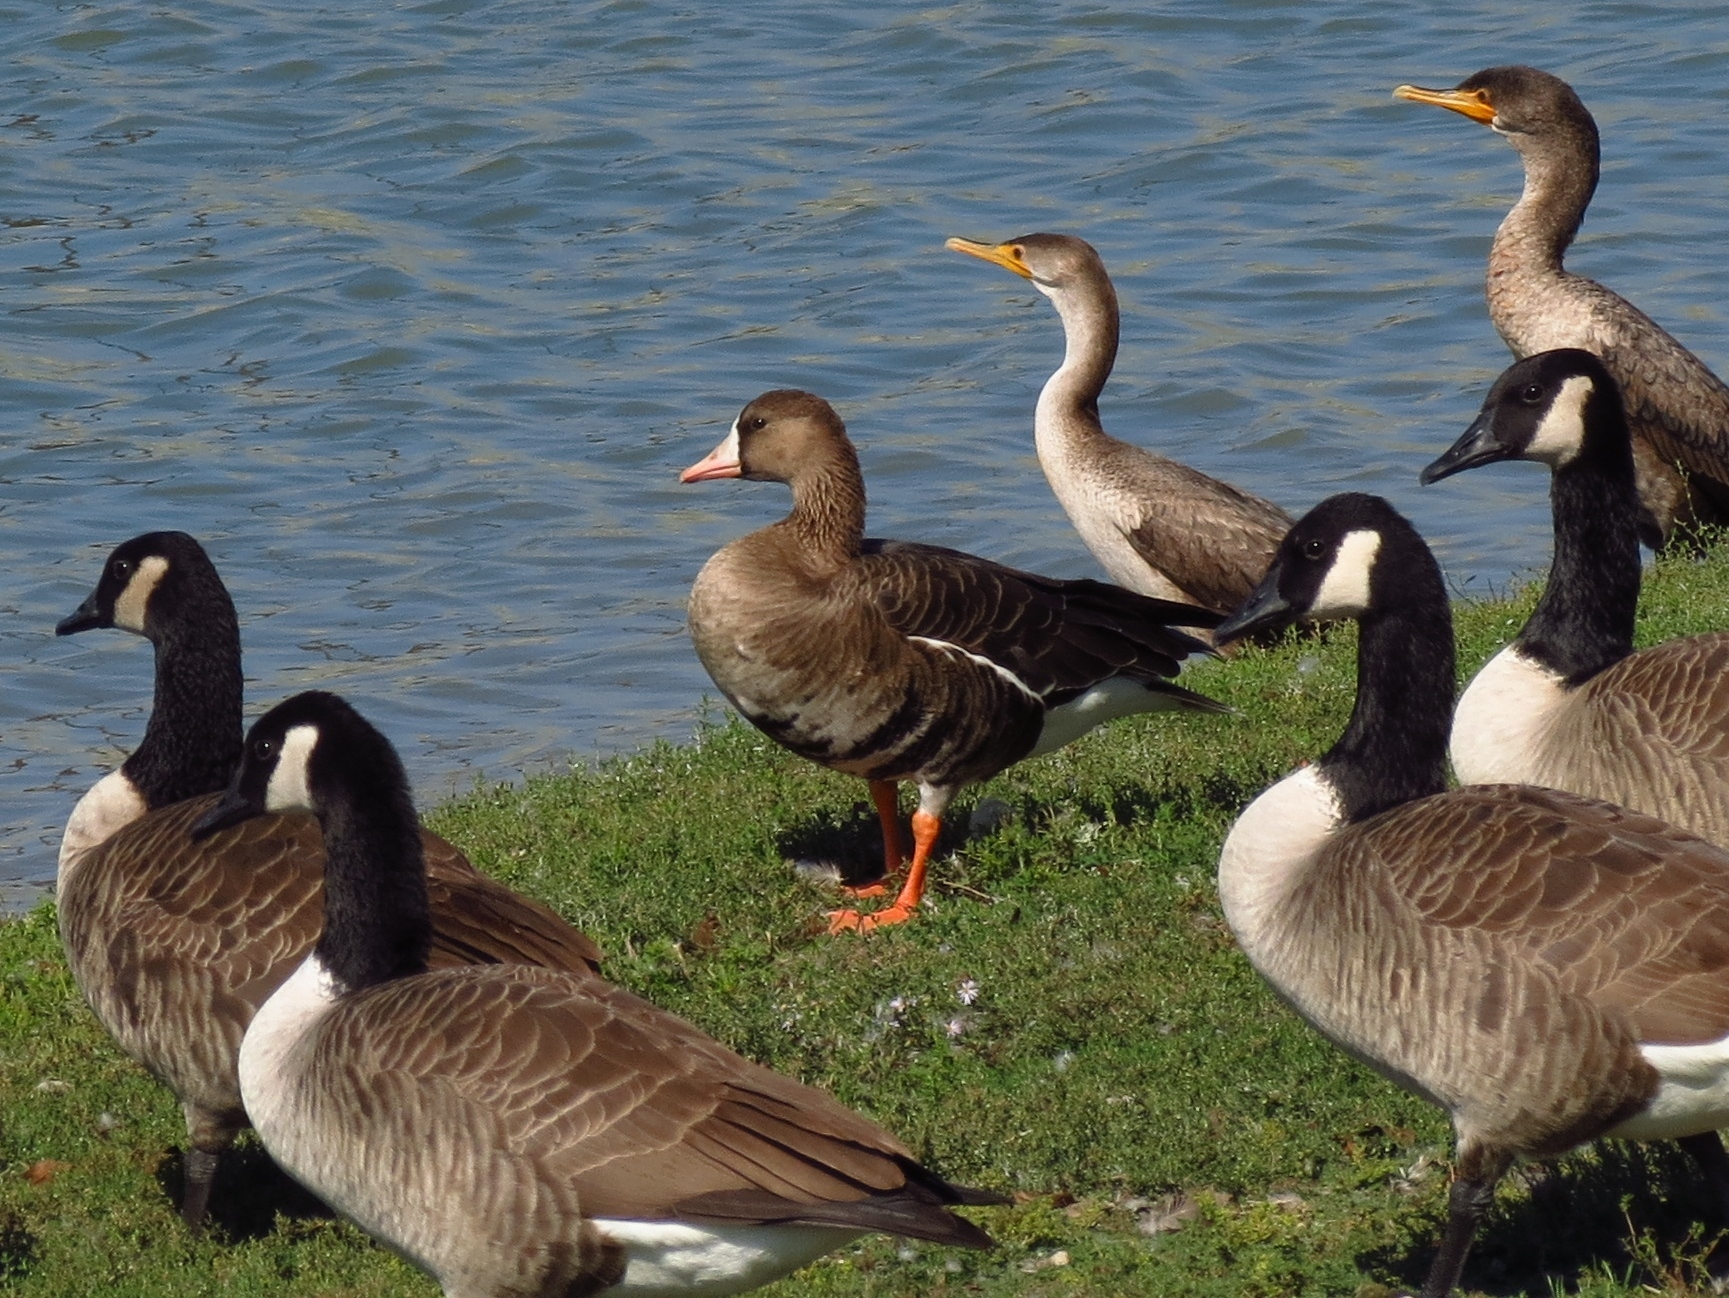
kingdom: Animalia
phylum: Chordata
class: Aves
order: Anseriformes
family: Anatidae
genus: Anser
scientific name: Anser albifrons
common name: Greater white-fronted goose
